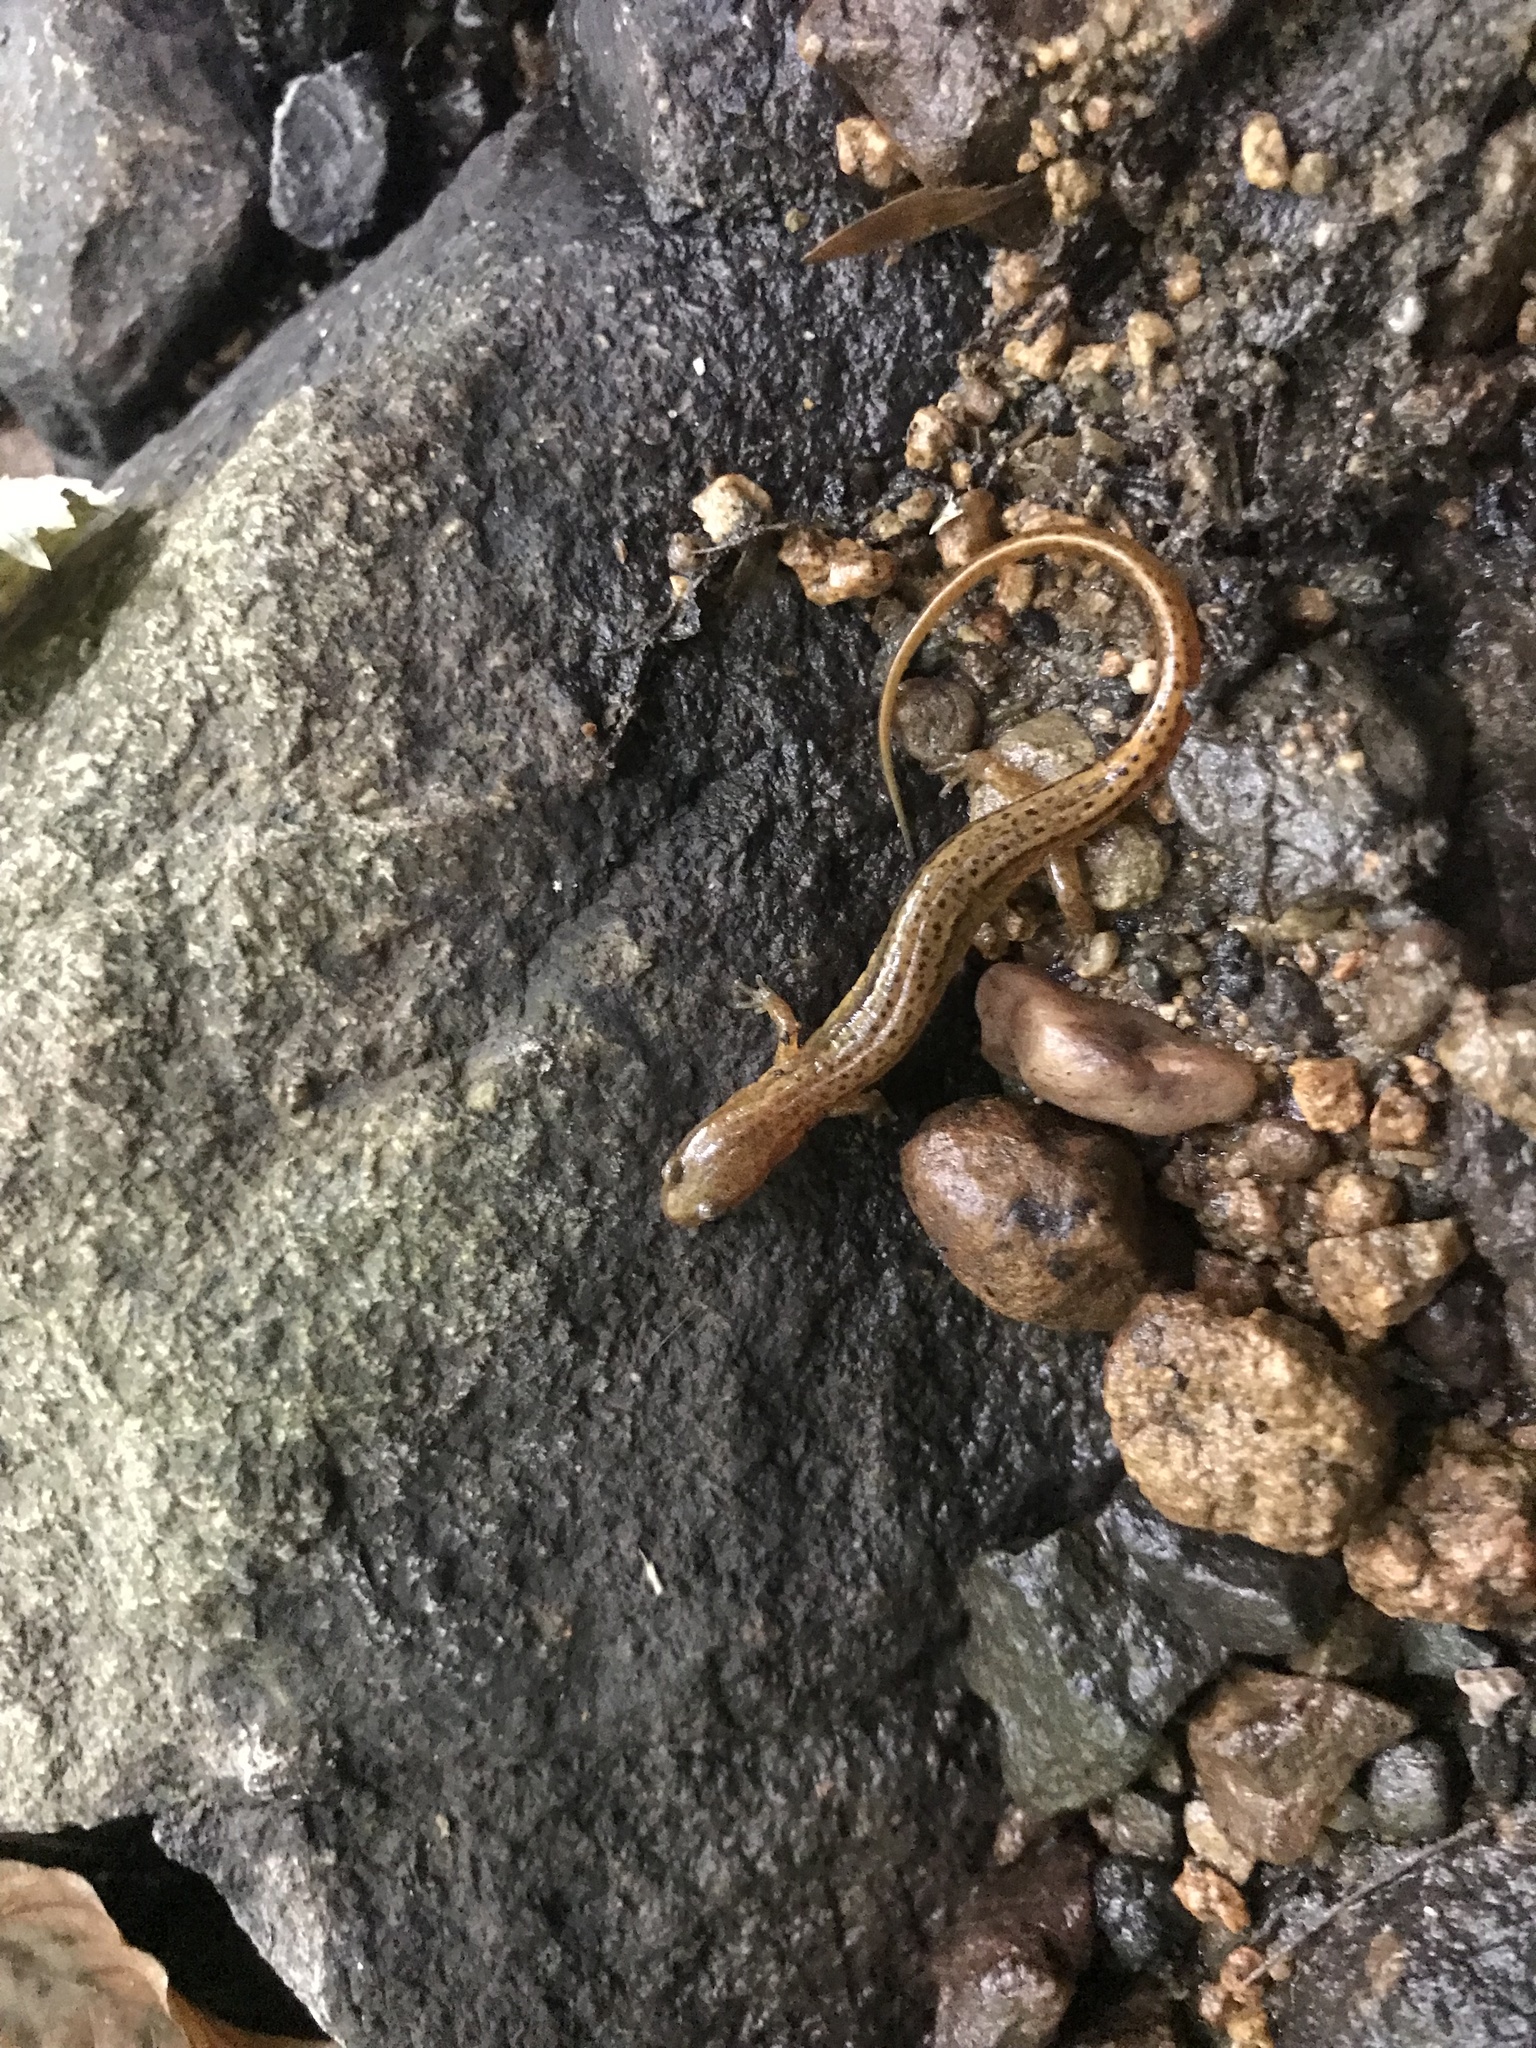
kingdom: Animalia
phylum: Chordata
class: Amphibia
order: Caudata
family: Plethodontidae
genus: Eurycea
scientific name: Eurycea cirrigera
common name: Southern two-lined salamander
